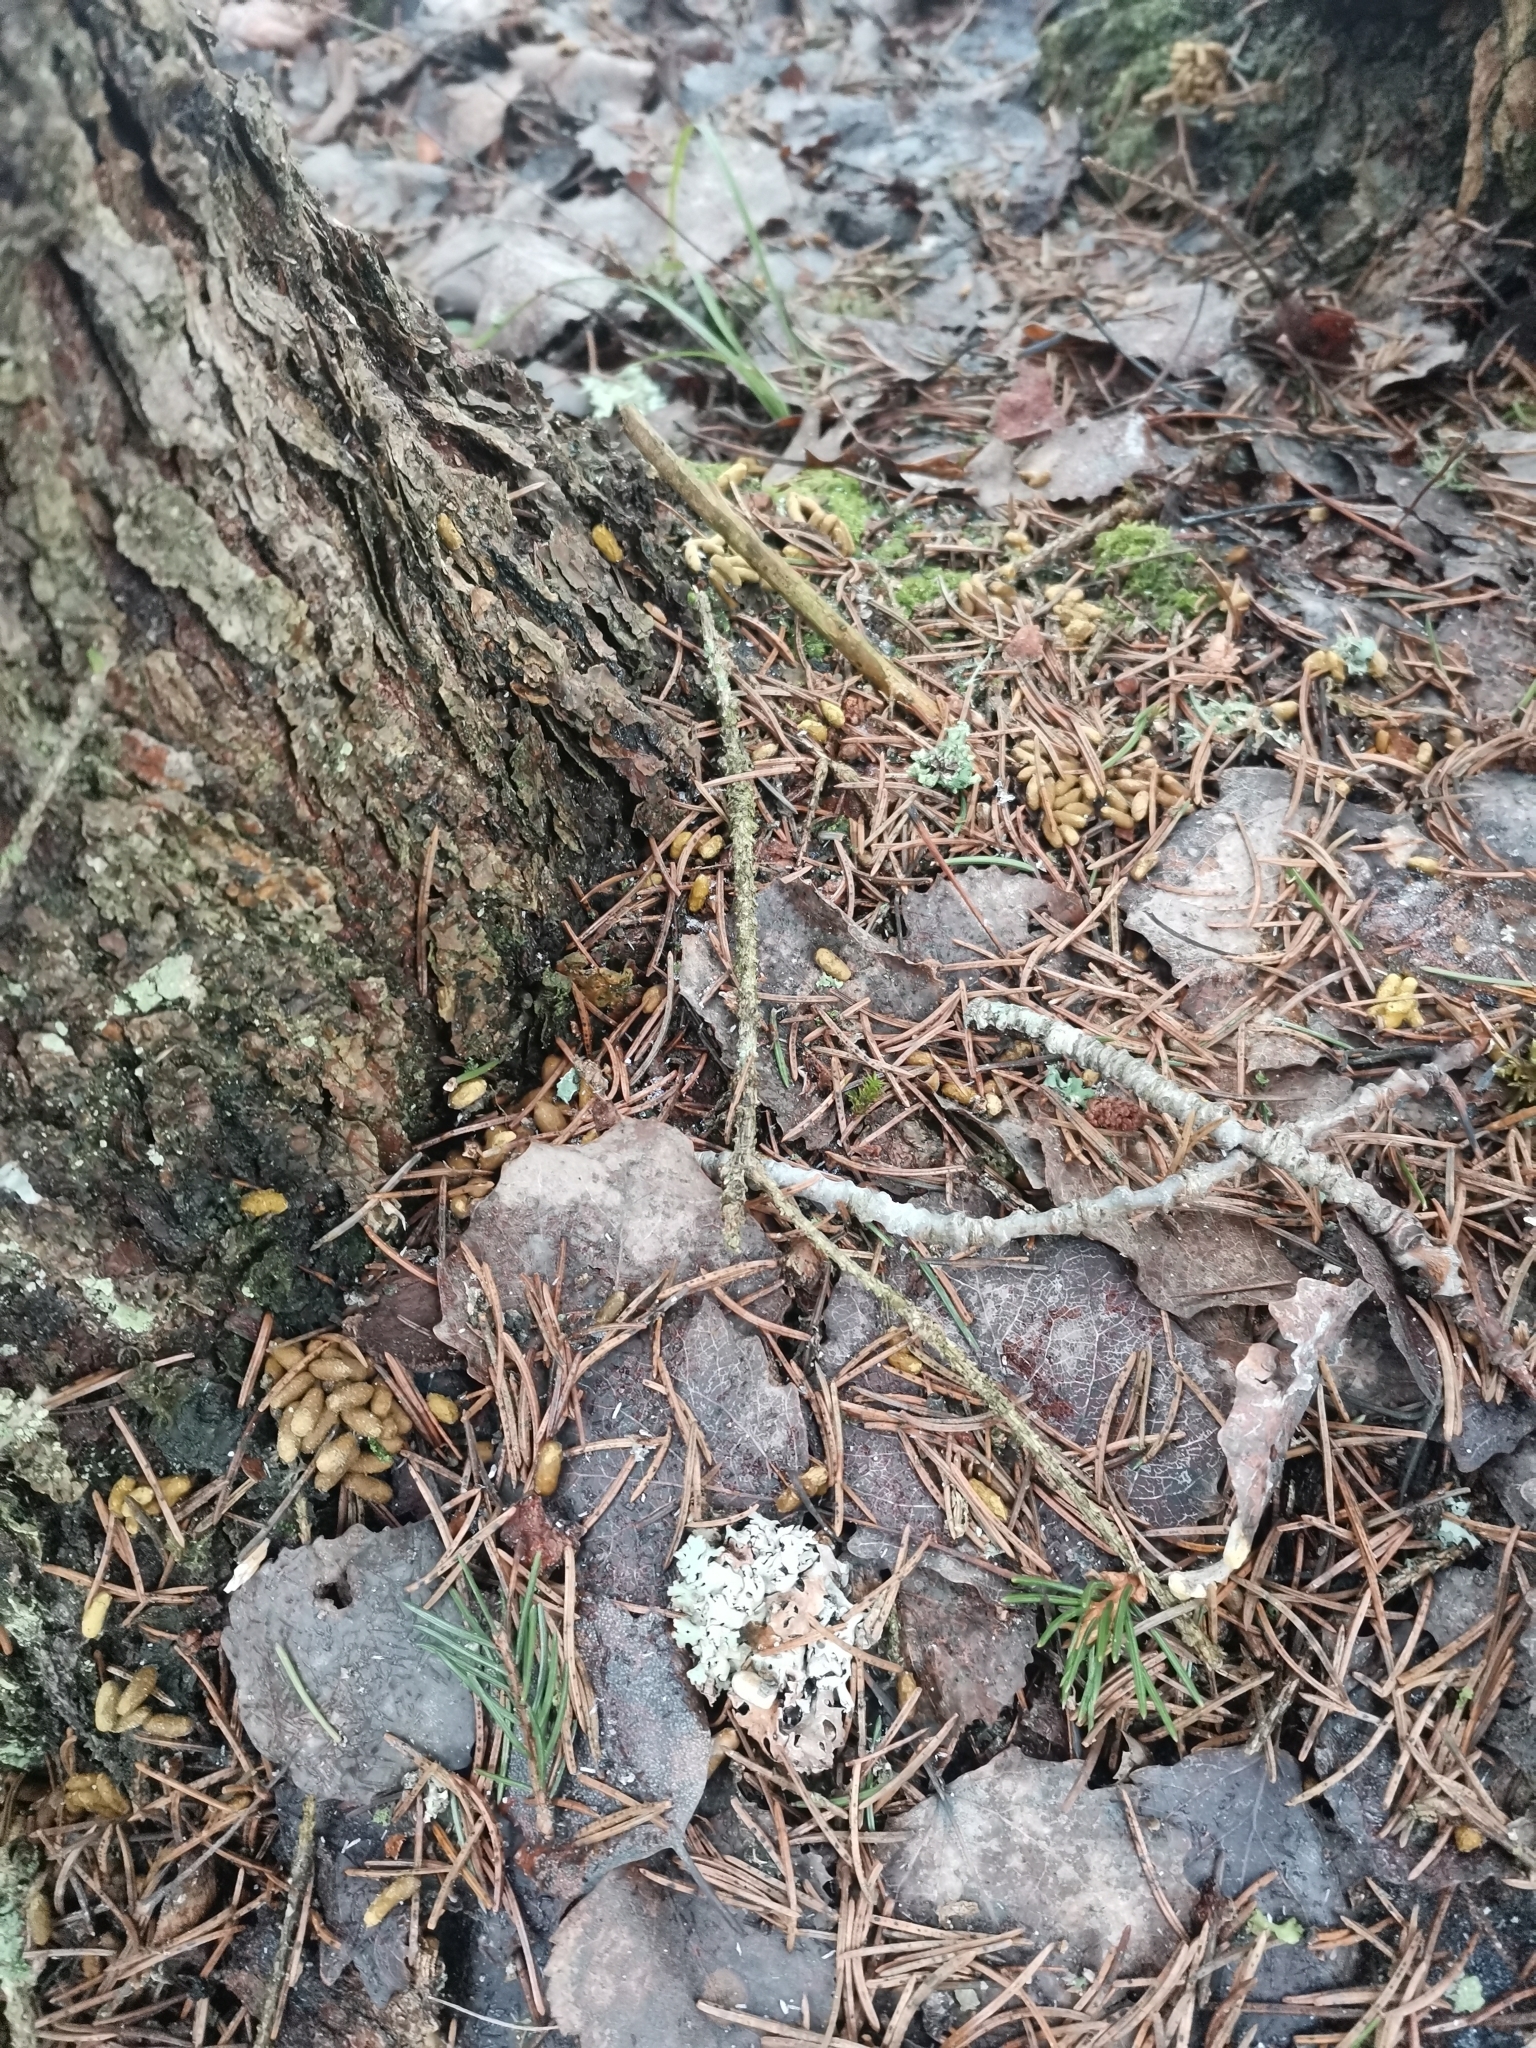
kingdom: Animalia
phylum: Chordata
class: Mammalia
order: Rodentia
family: Sciuridae
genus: Pteromys
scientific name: Pteromys volans
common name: Siberian flying squirrel
